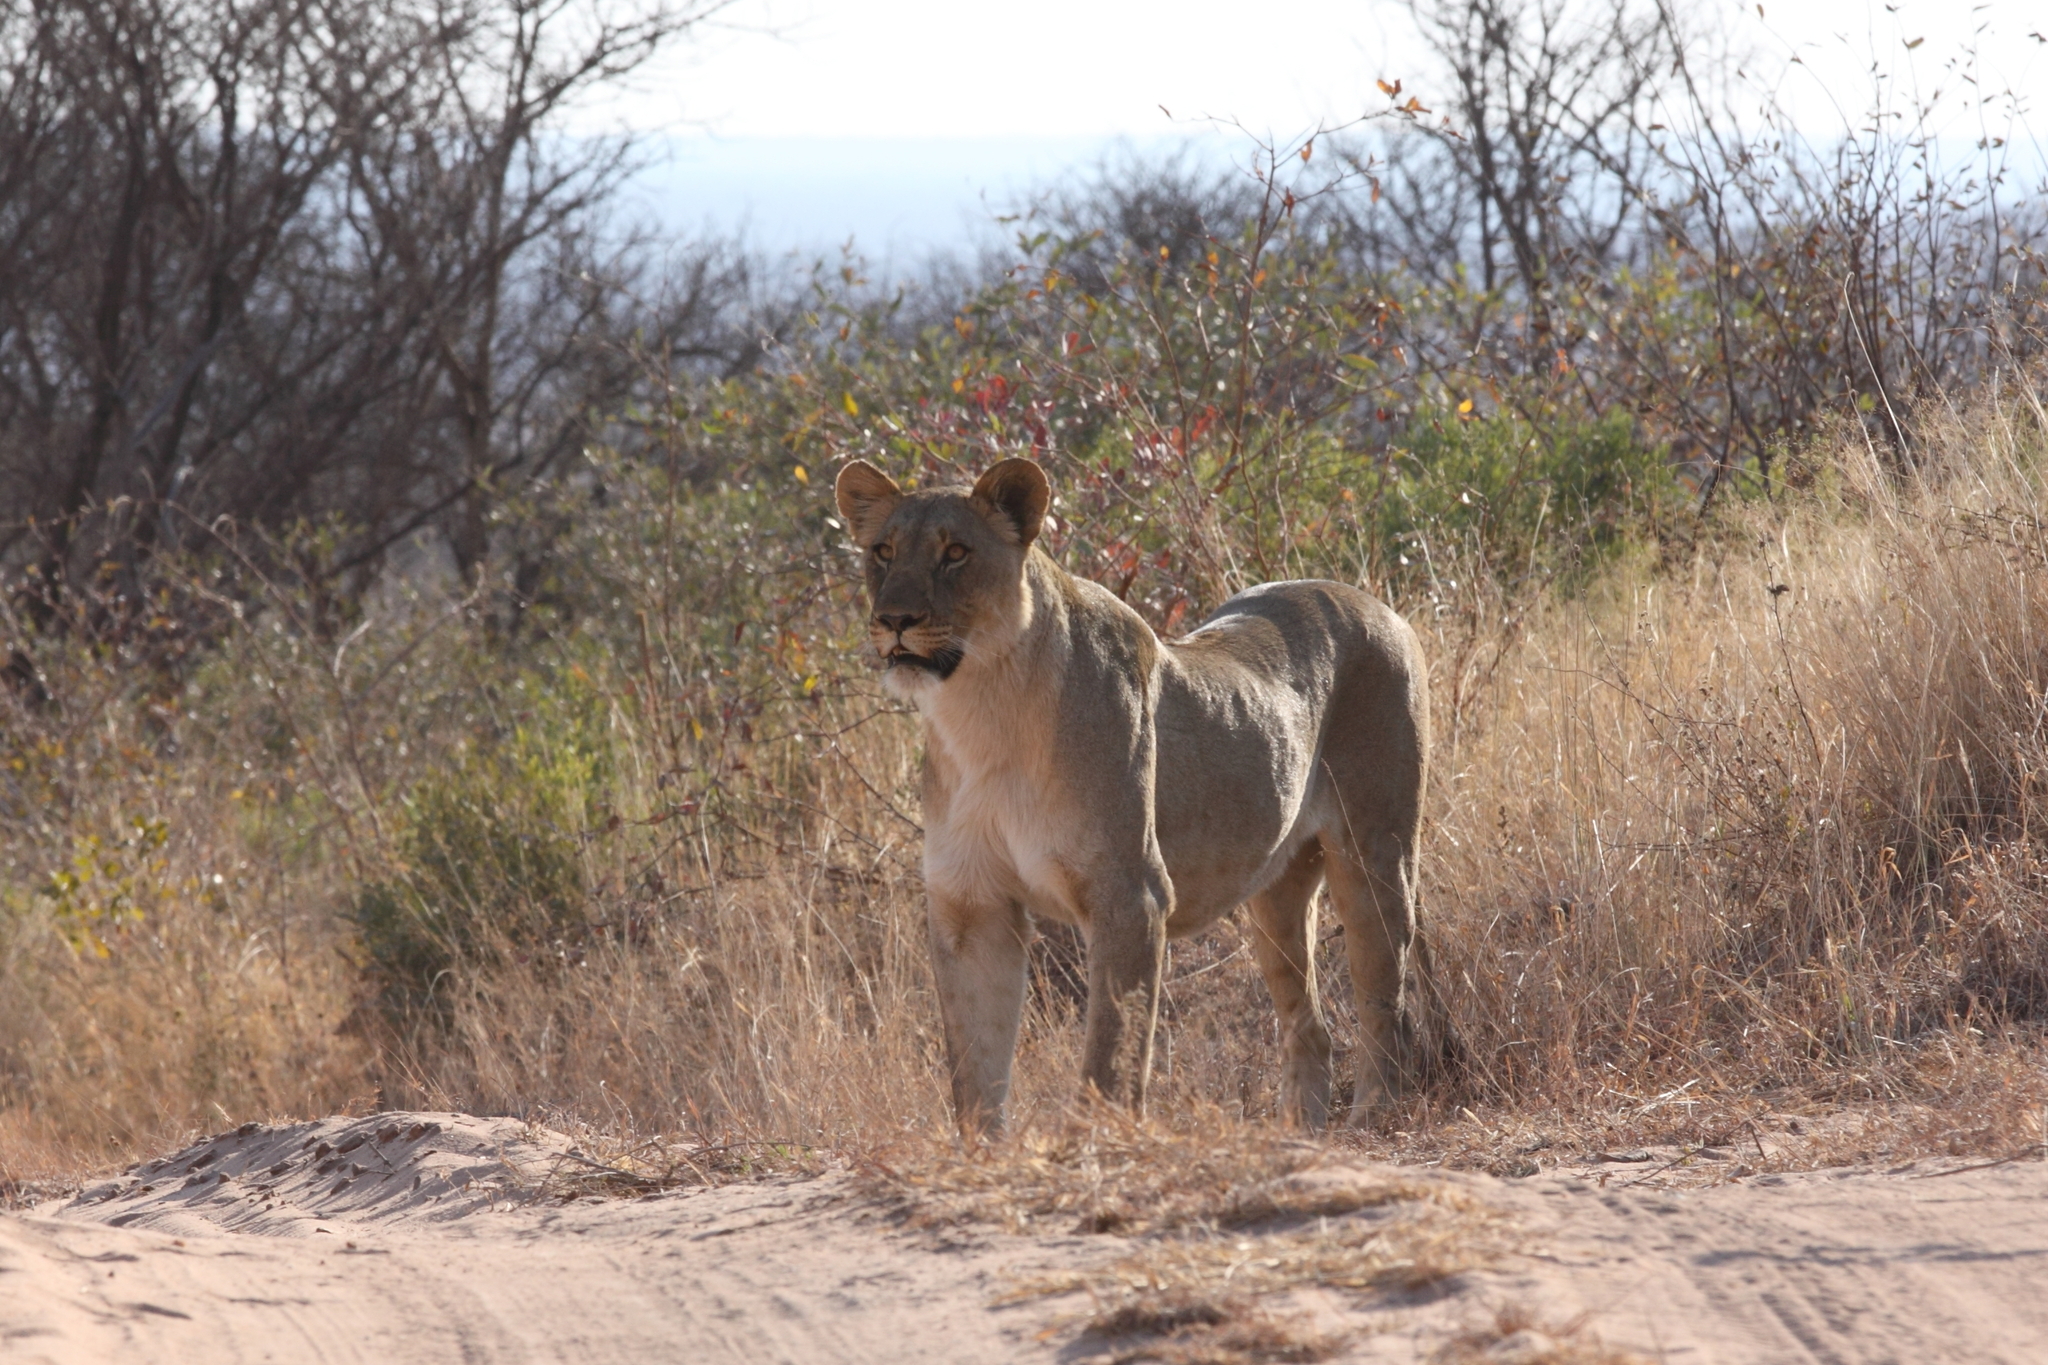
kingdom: Animalia
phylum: Chordata
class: Mammalia
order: Carnivora
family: Felidae
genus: Panthera
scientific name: Panthera leo
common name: Lion
